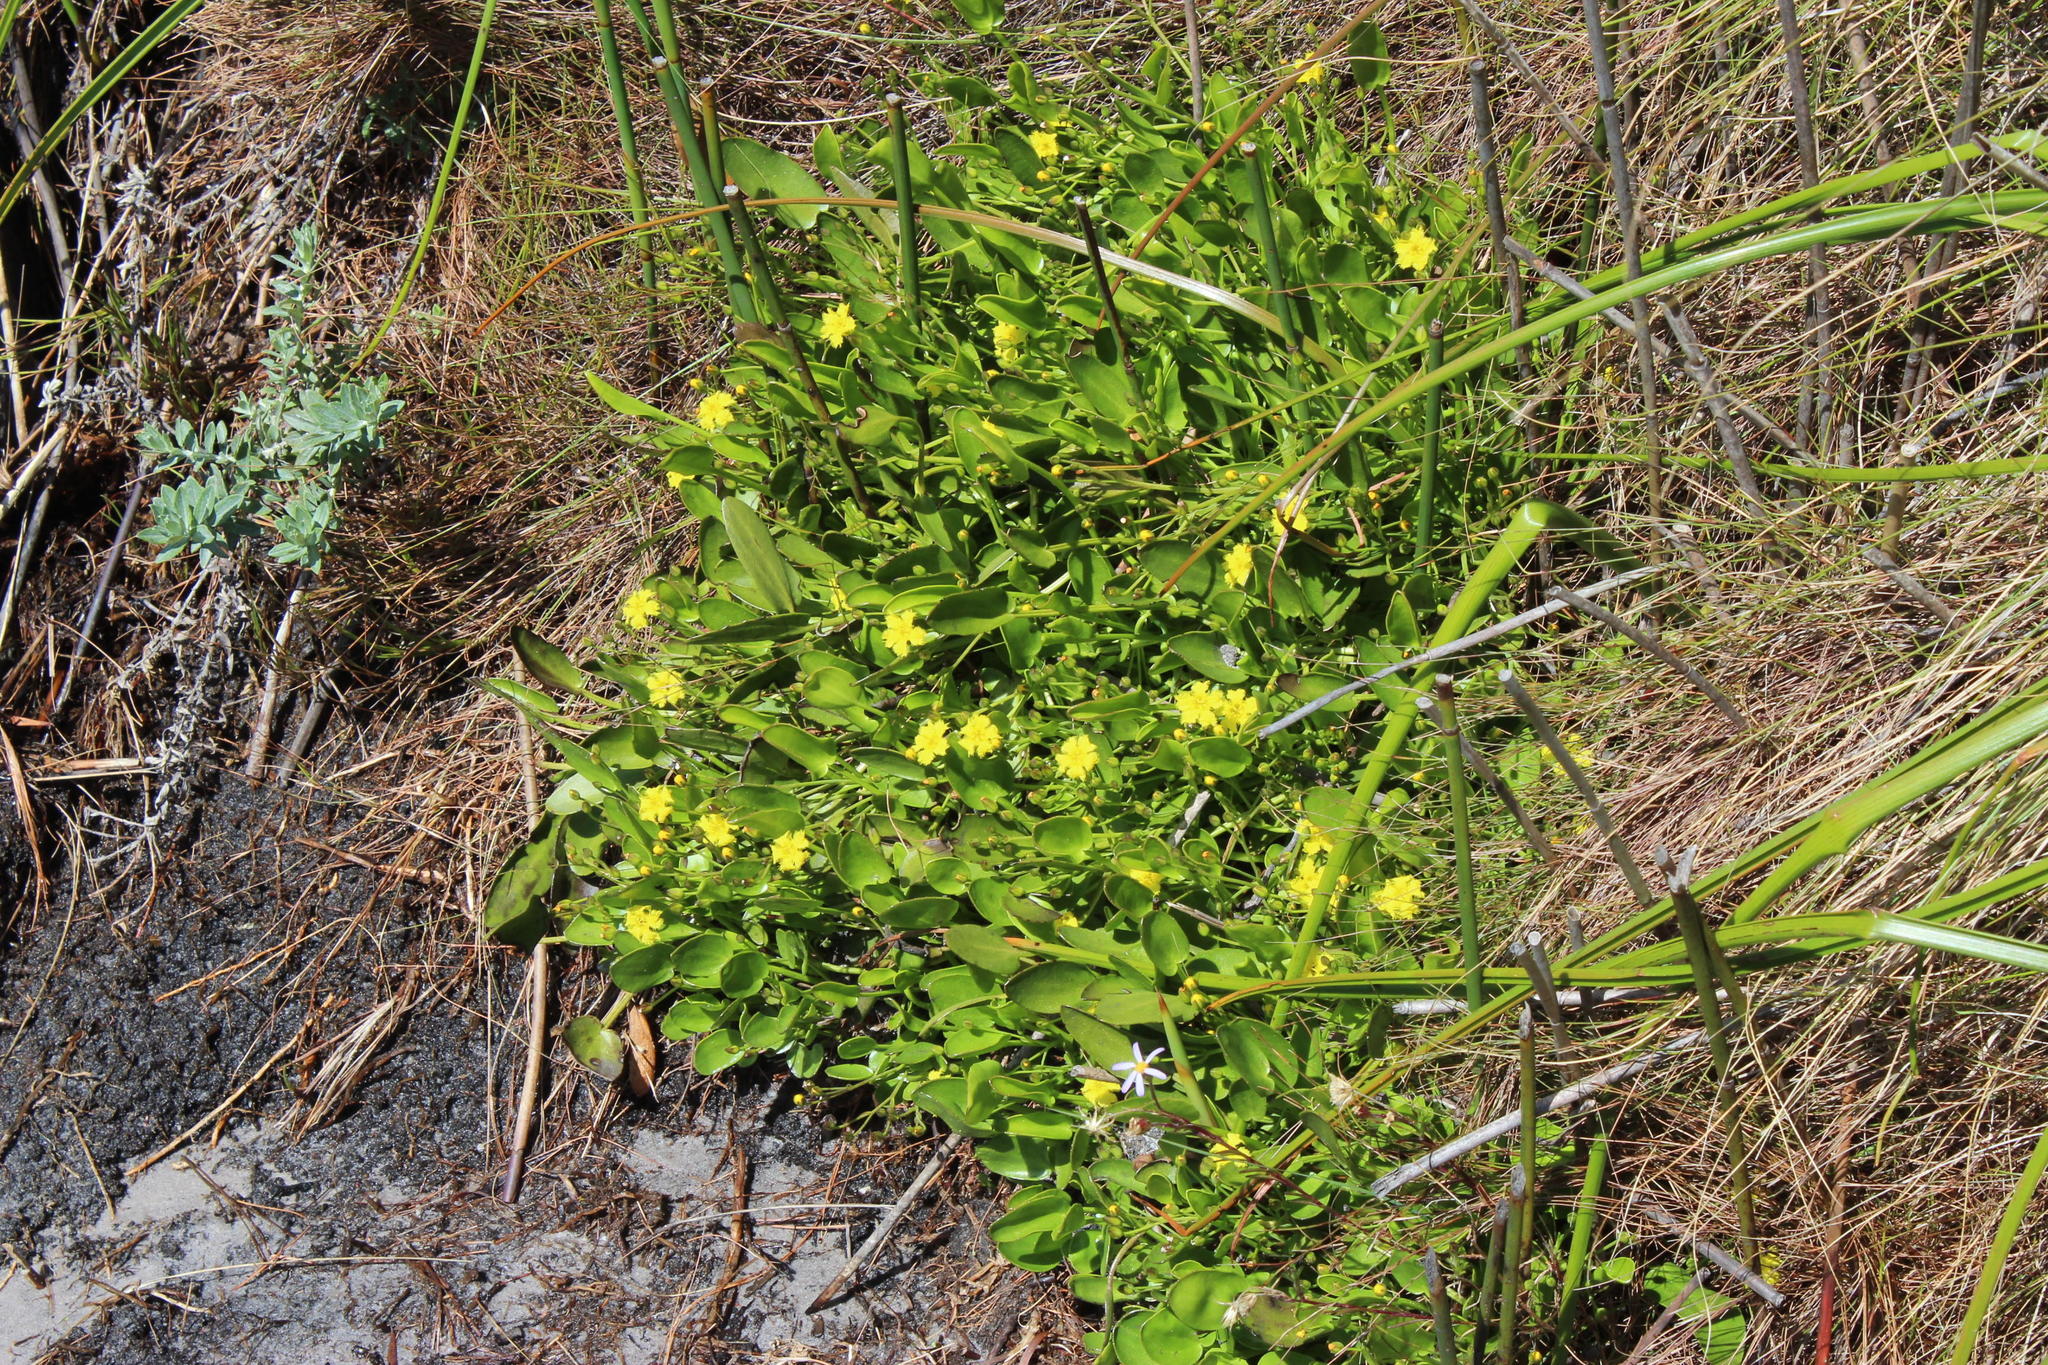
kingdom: Plantae
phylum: Tracheophyta
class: Magnoliopsida
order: Asterales
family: Menyanthaceae
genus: Villarsia
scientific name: Villarsia manningiana
